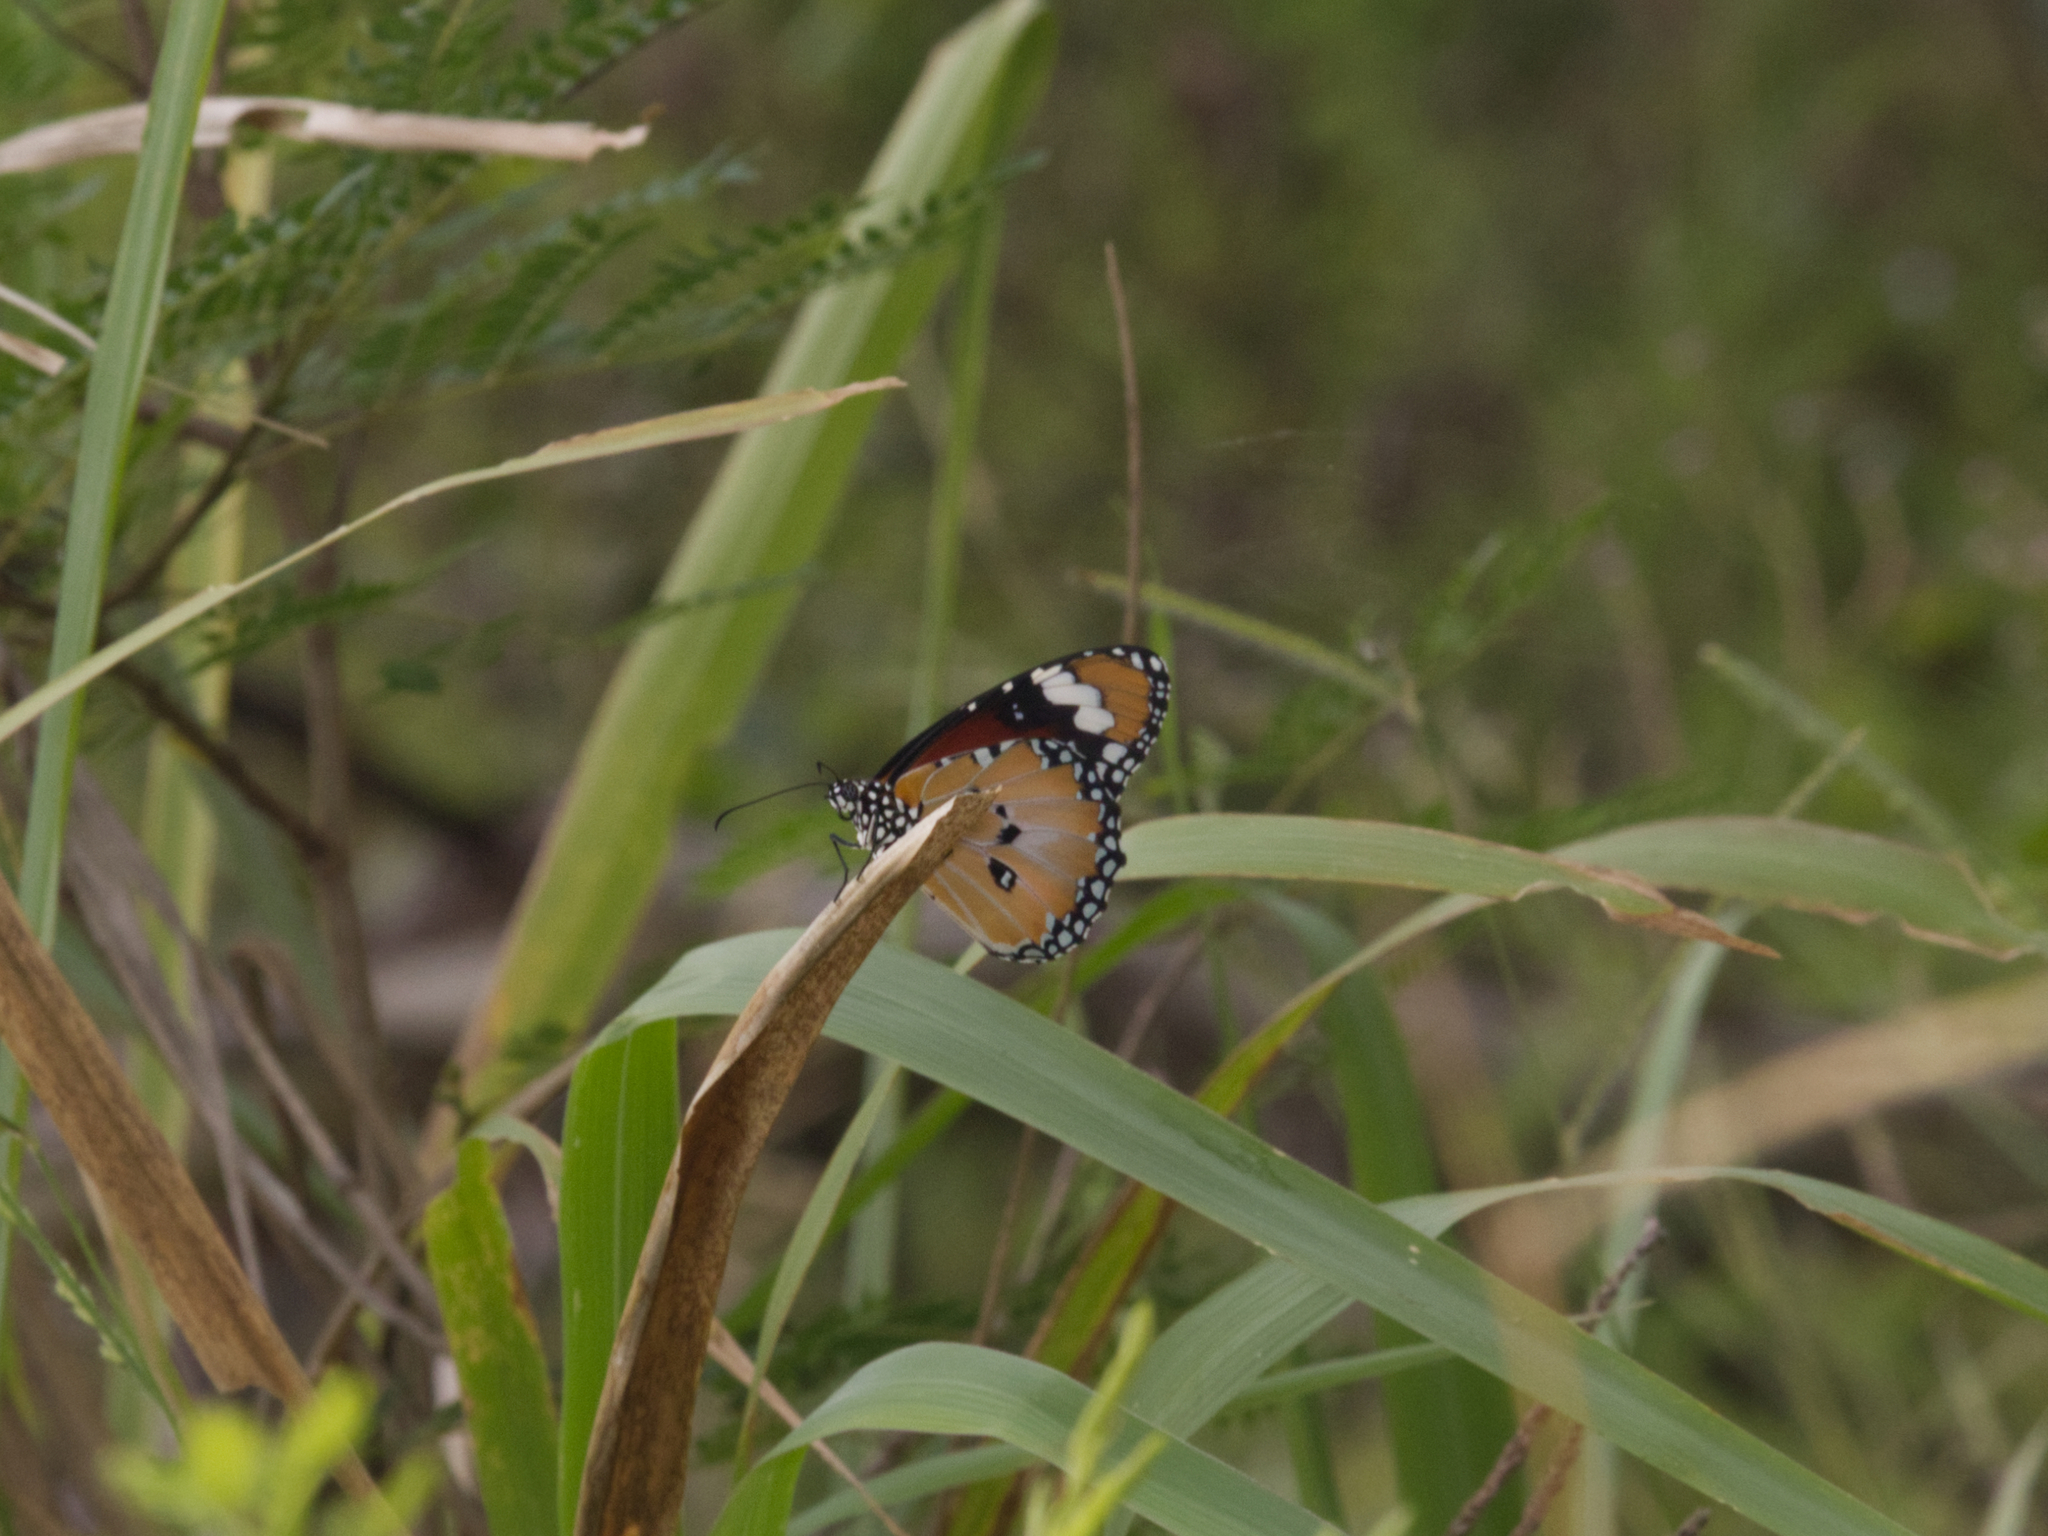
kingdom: Animalia
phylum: Arthropoda
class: Insecta
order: Lepidoptera
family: Nymphalidae
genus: Danaus
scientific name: Danaus chrysippus
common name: Plain tiger
